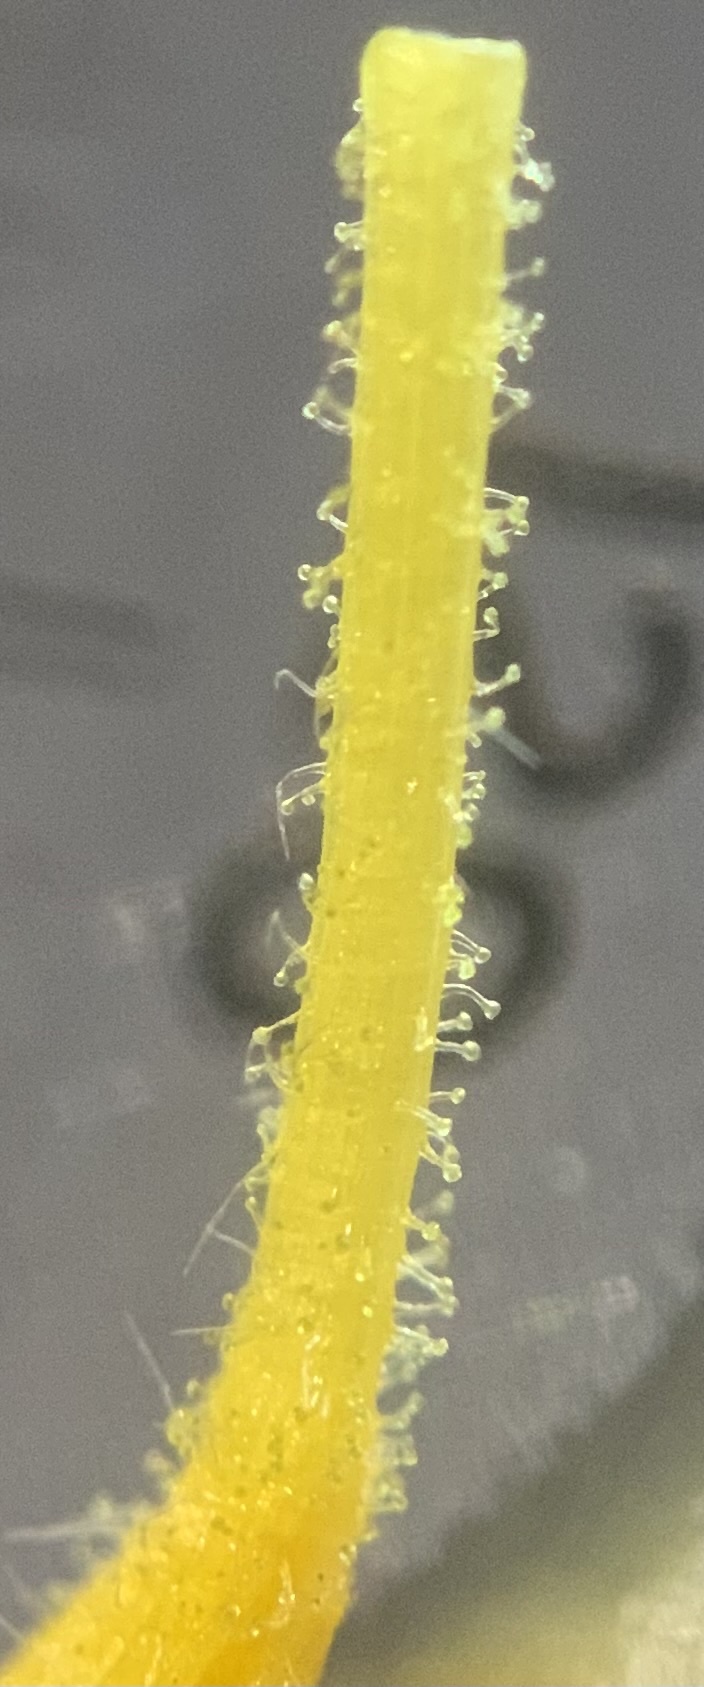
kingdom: Plantae
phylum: Tracheophyta
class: Magnoliopsida
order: Asterales
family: Asteraceae
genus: Arnica
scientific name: Arnica sororia
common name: Twin arnica
